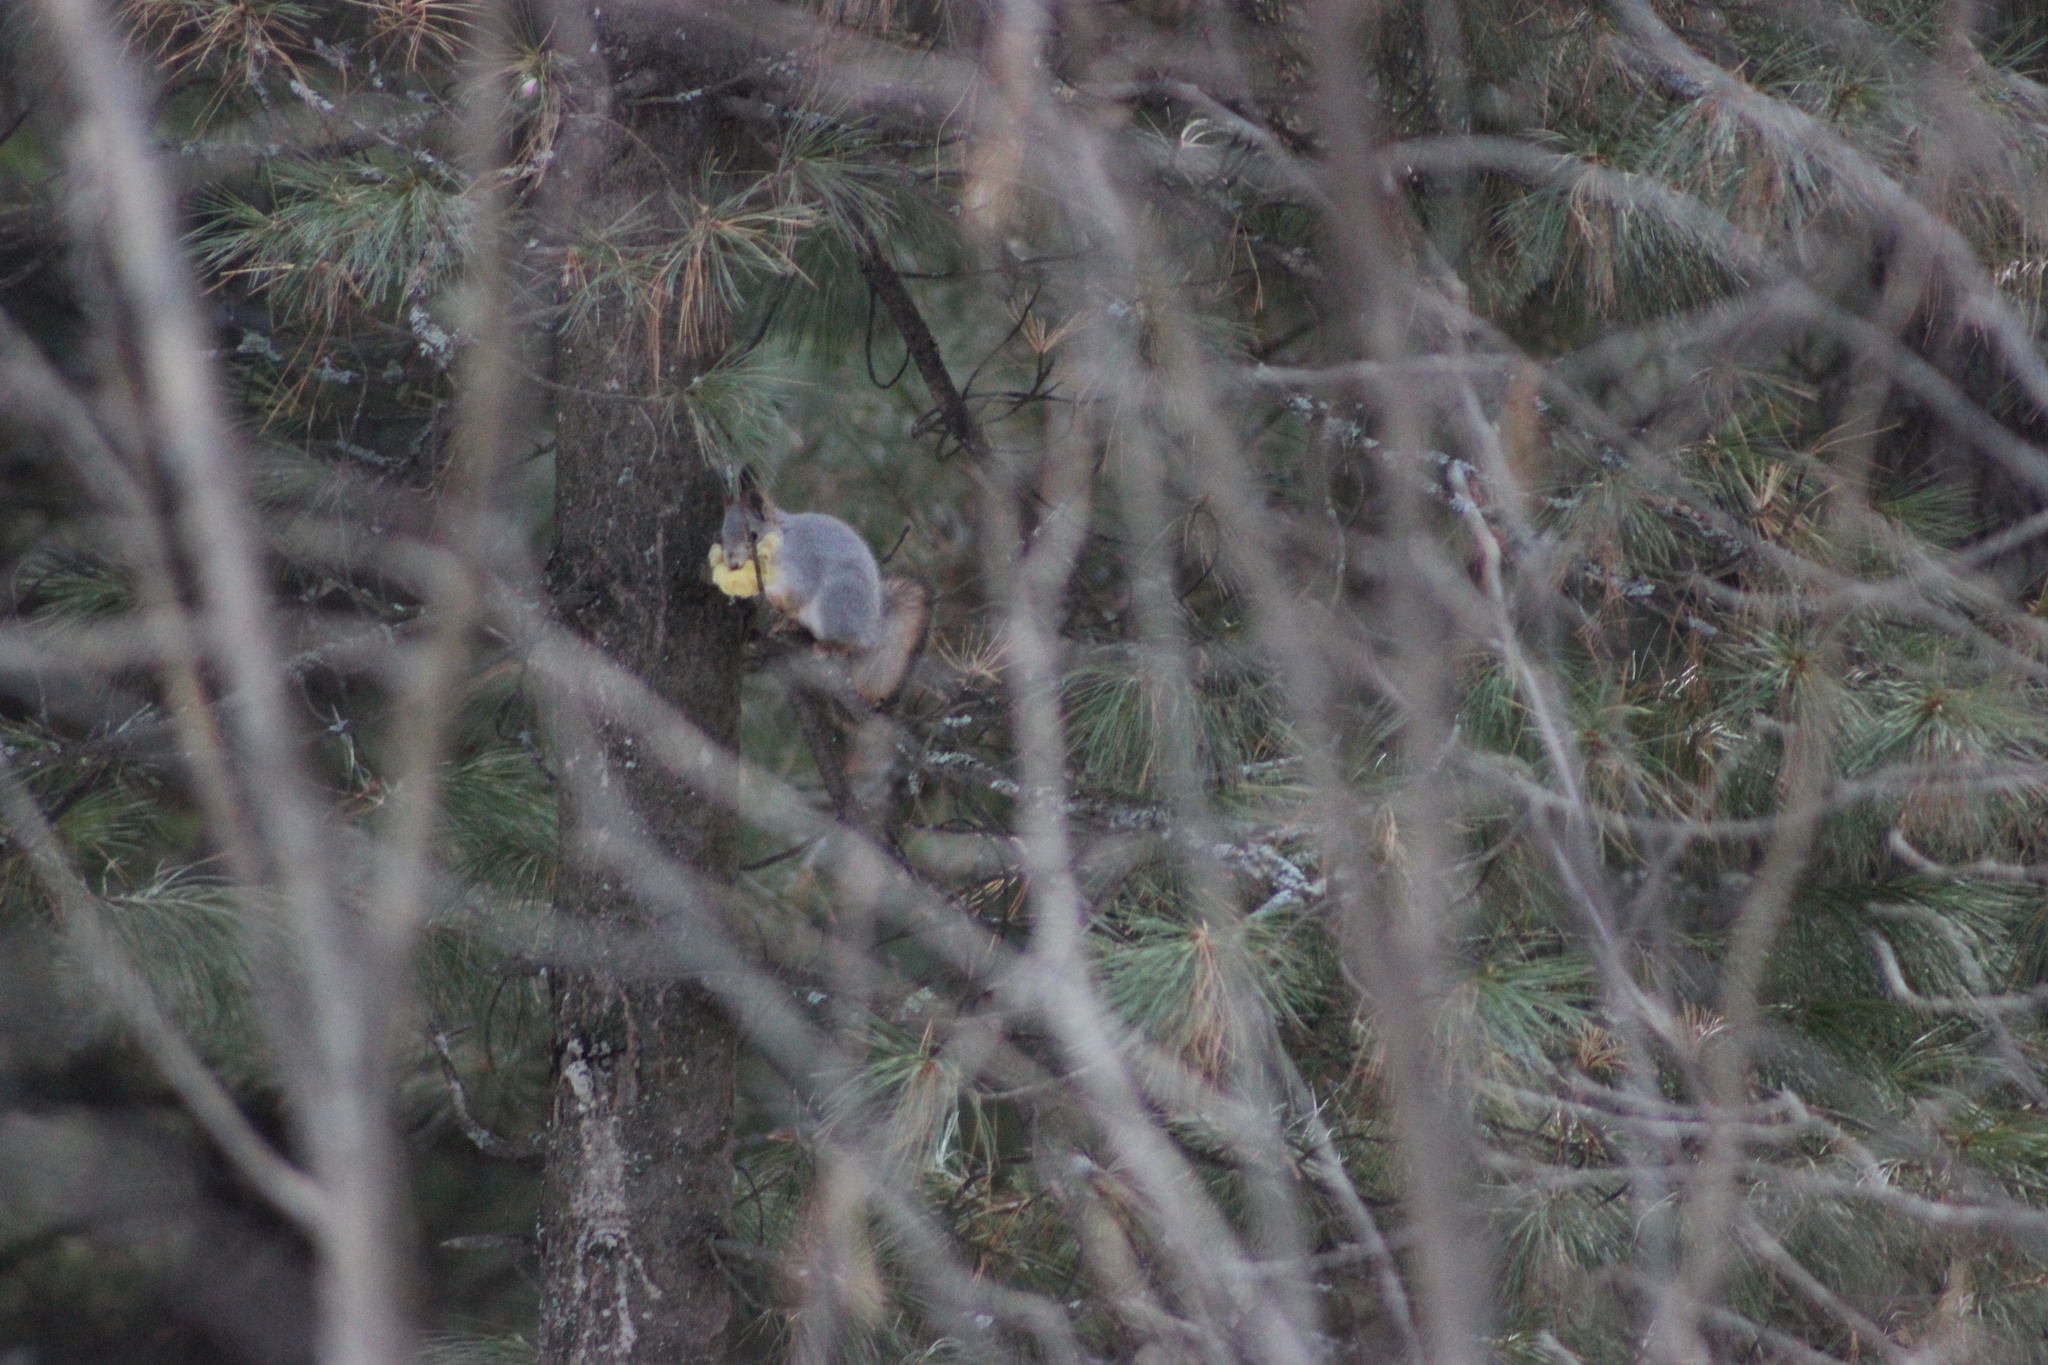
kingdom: Animalia
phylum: Chordata
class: Mammalia
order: Rodentia
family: Sciuridae
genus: Sciurus
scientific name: Sciurus vulgaris
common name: Eurasian red squirrel
